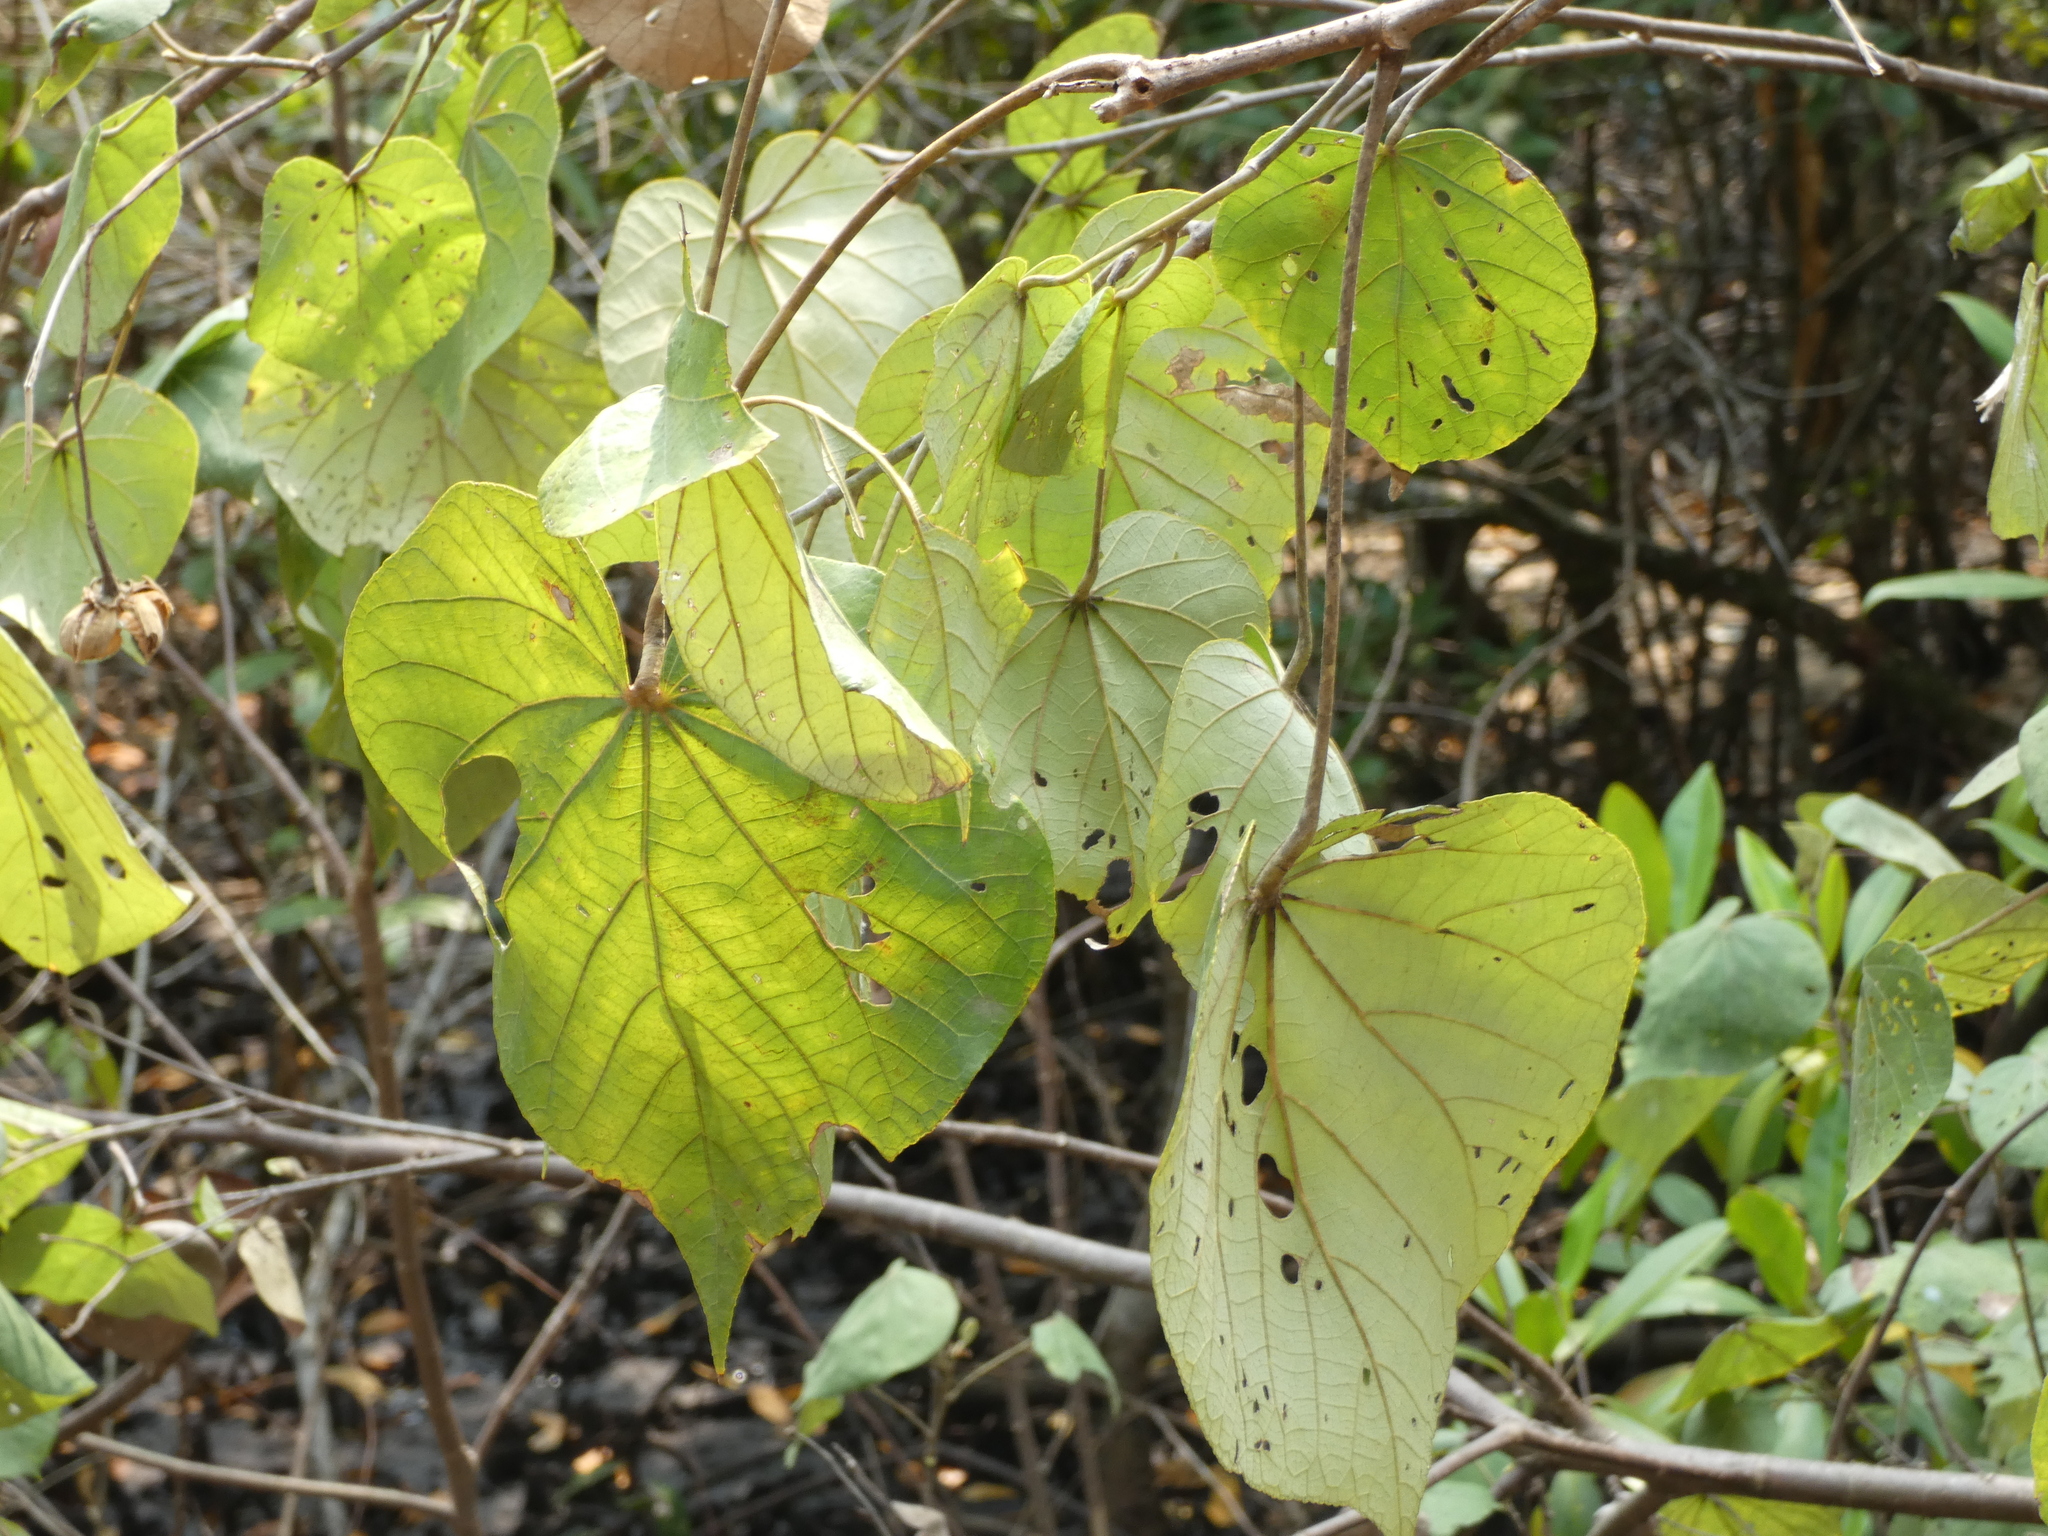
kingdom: Plantae
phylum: Tracheophyta
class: Magnoliopsida
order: Malvales
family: Malvaceae
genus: Talipariti
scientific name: Talipariti tiliaceum
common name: Sea hibiscus
